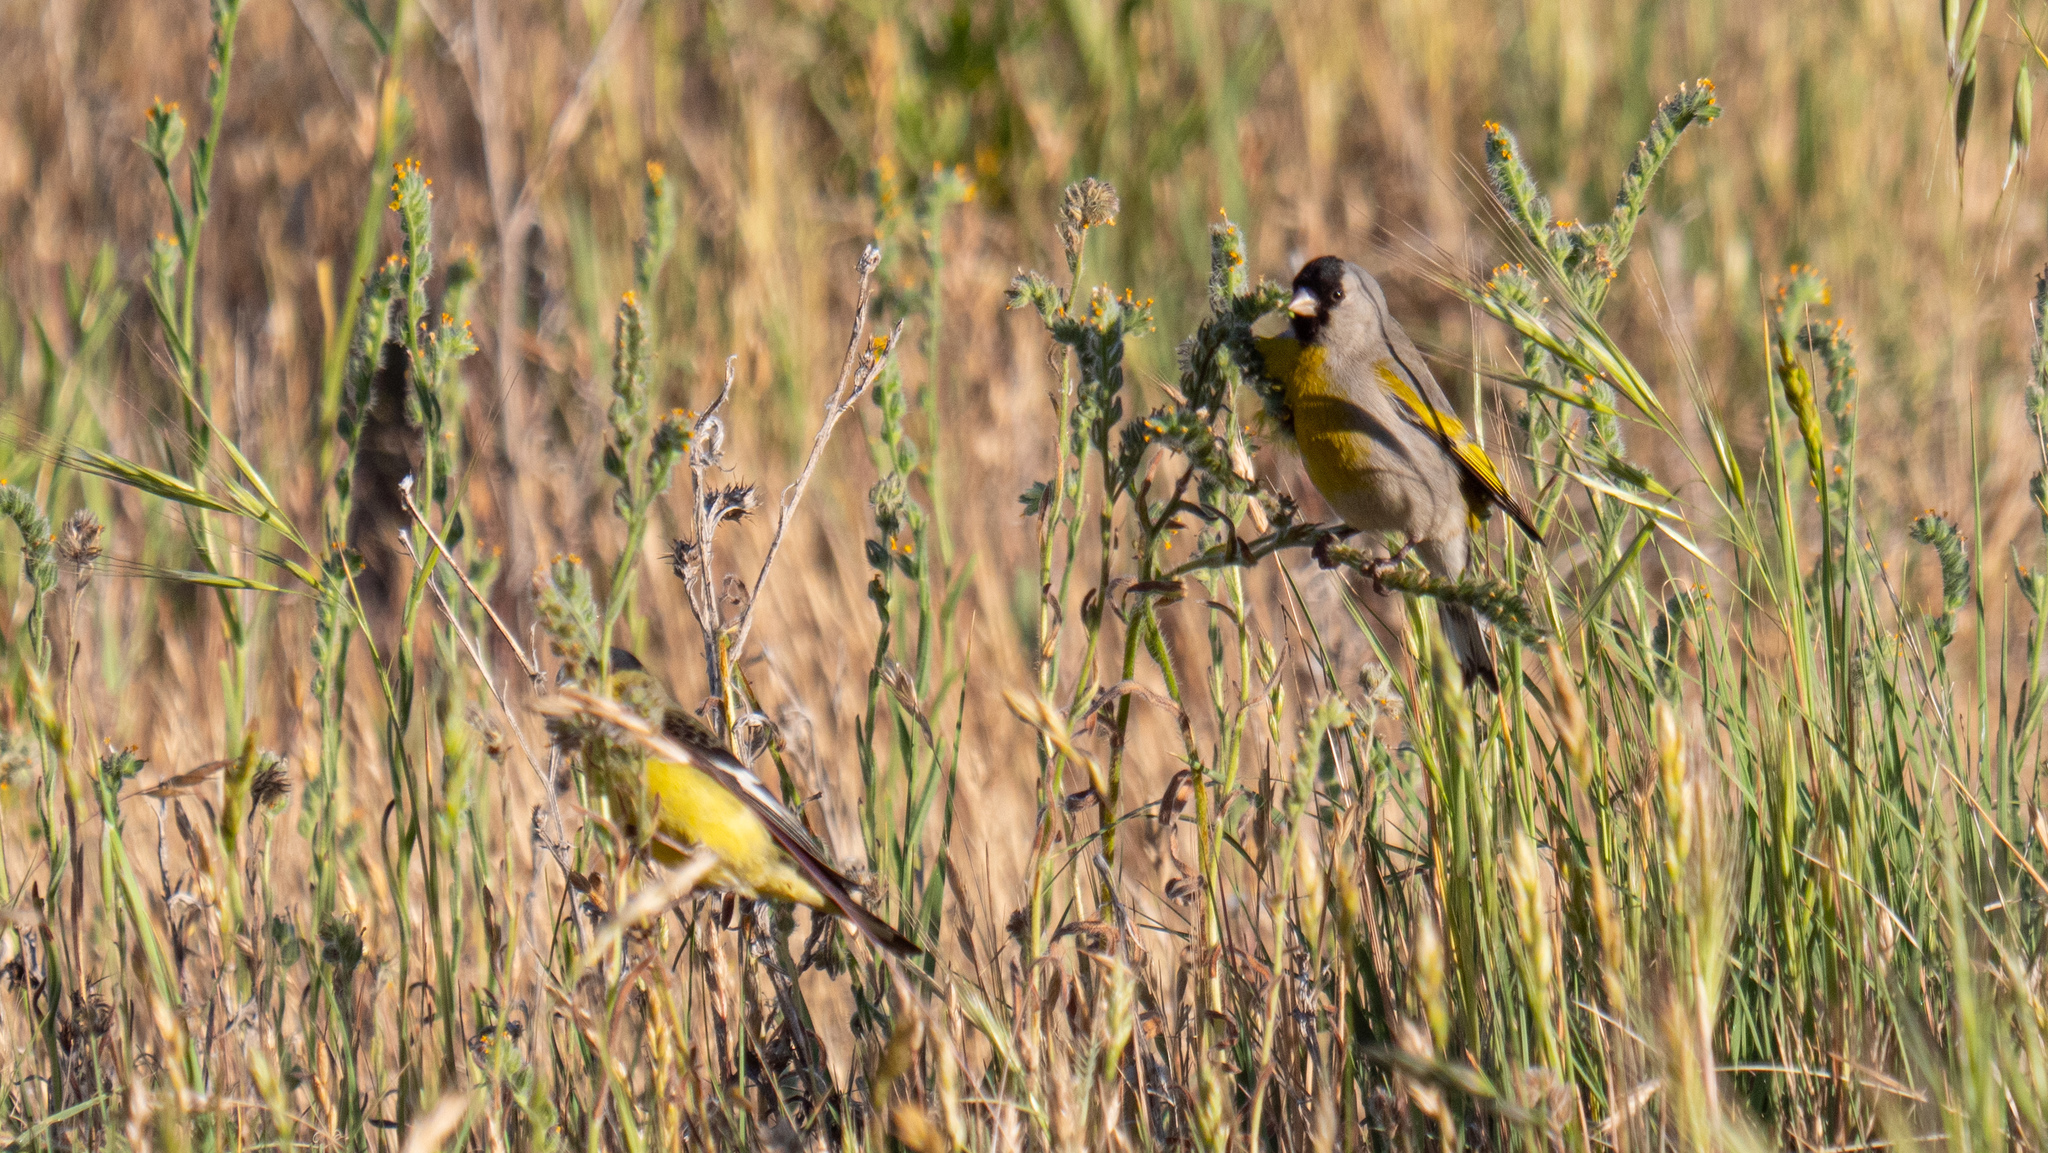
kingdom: Animalia
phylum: Chordata
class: Aves
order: Passeriformes
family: Fringillidae
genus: Spinus
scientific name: Spinus lawrencei
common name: Lawrence's goldfinch
